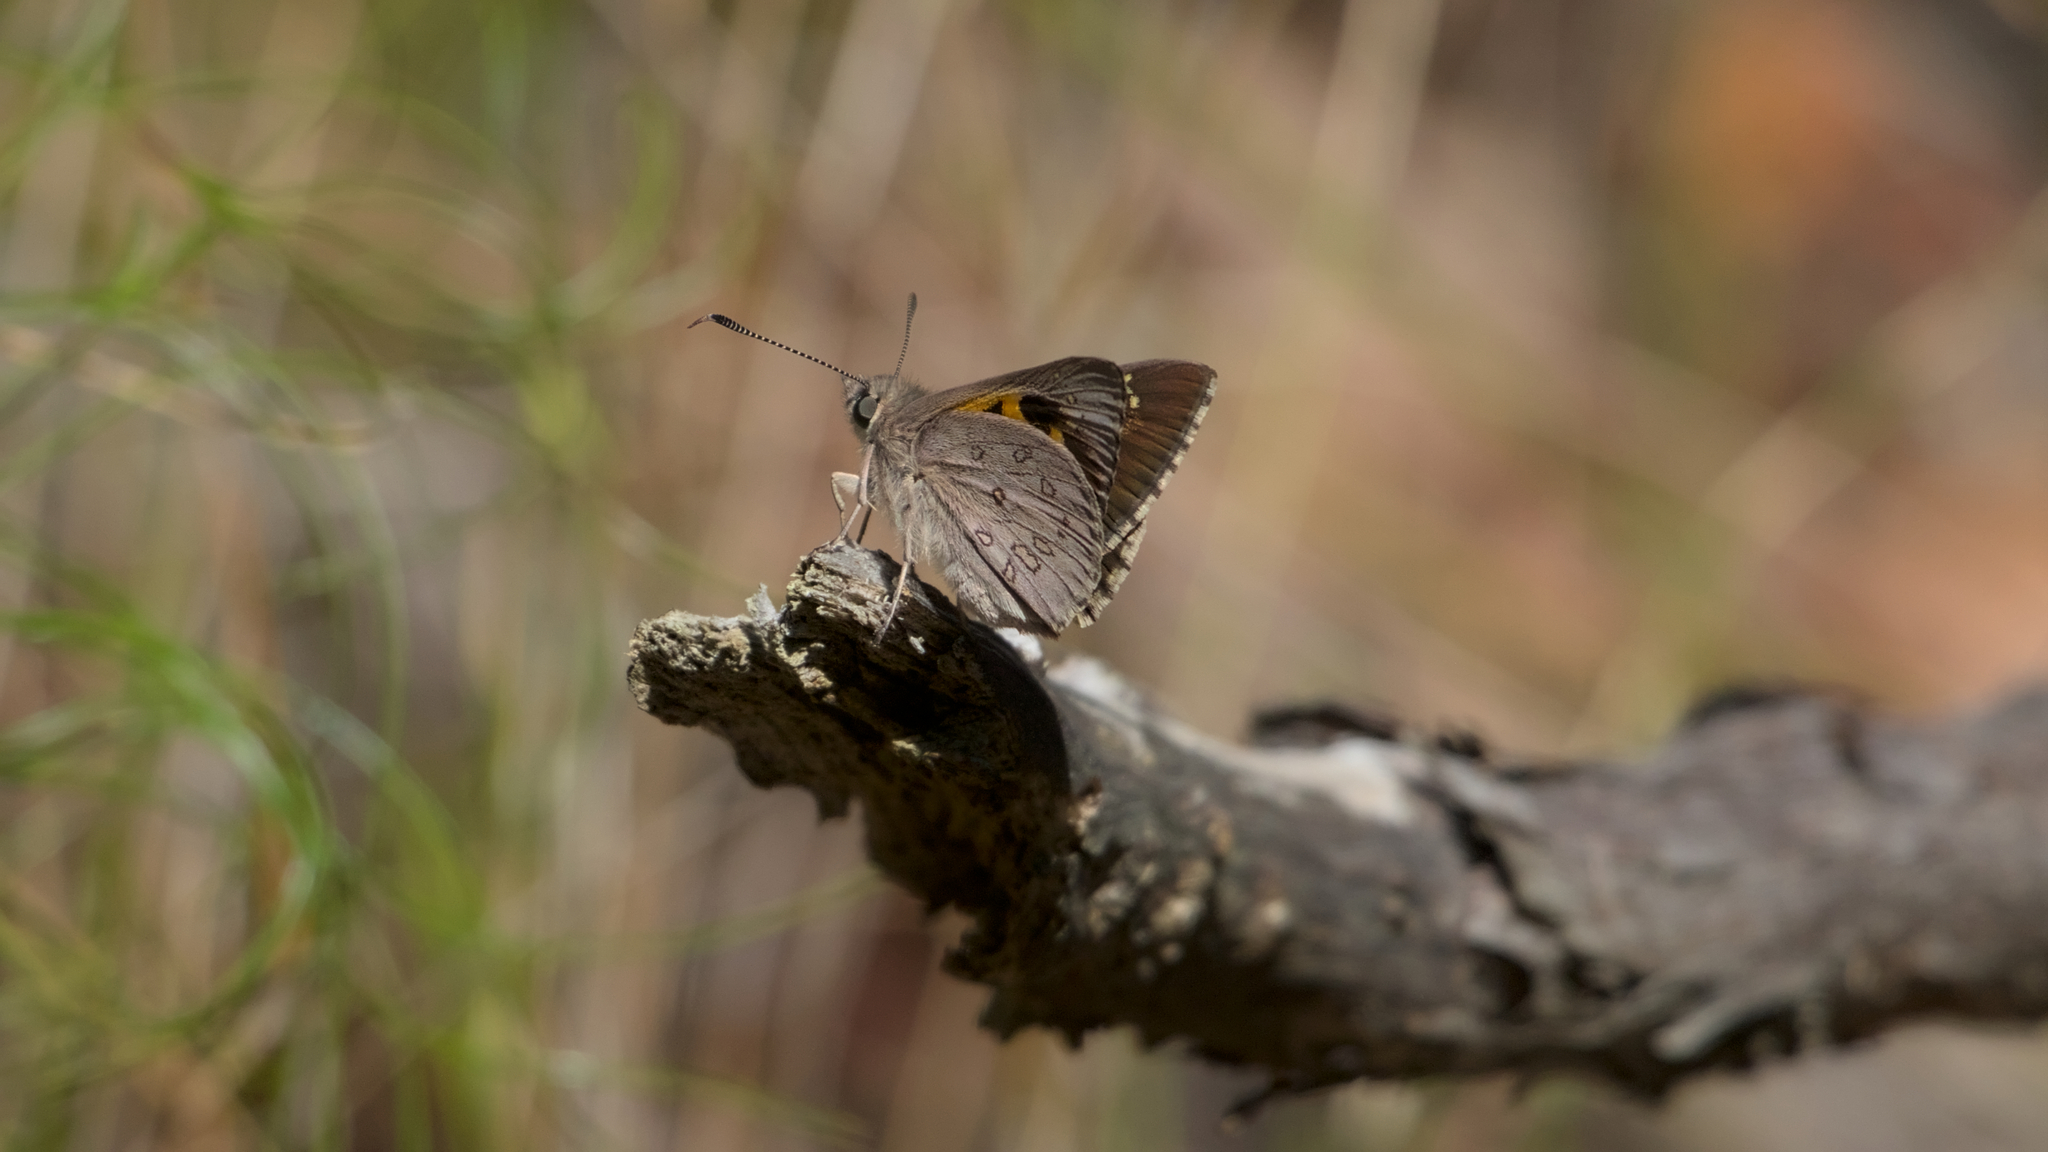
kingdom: Animalia
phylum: Arthropoda
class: Insecta
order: Lepidoptera
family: Hesperiidae
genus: Trapezites
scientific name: Trapezites phigalia
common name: Heath ochre
